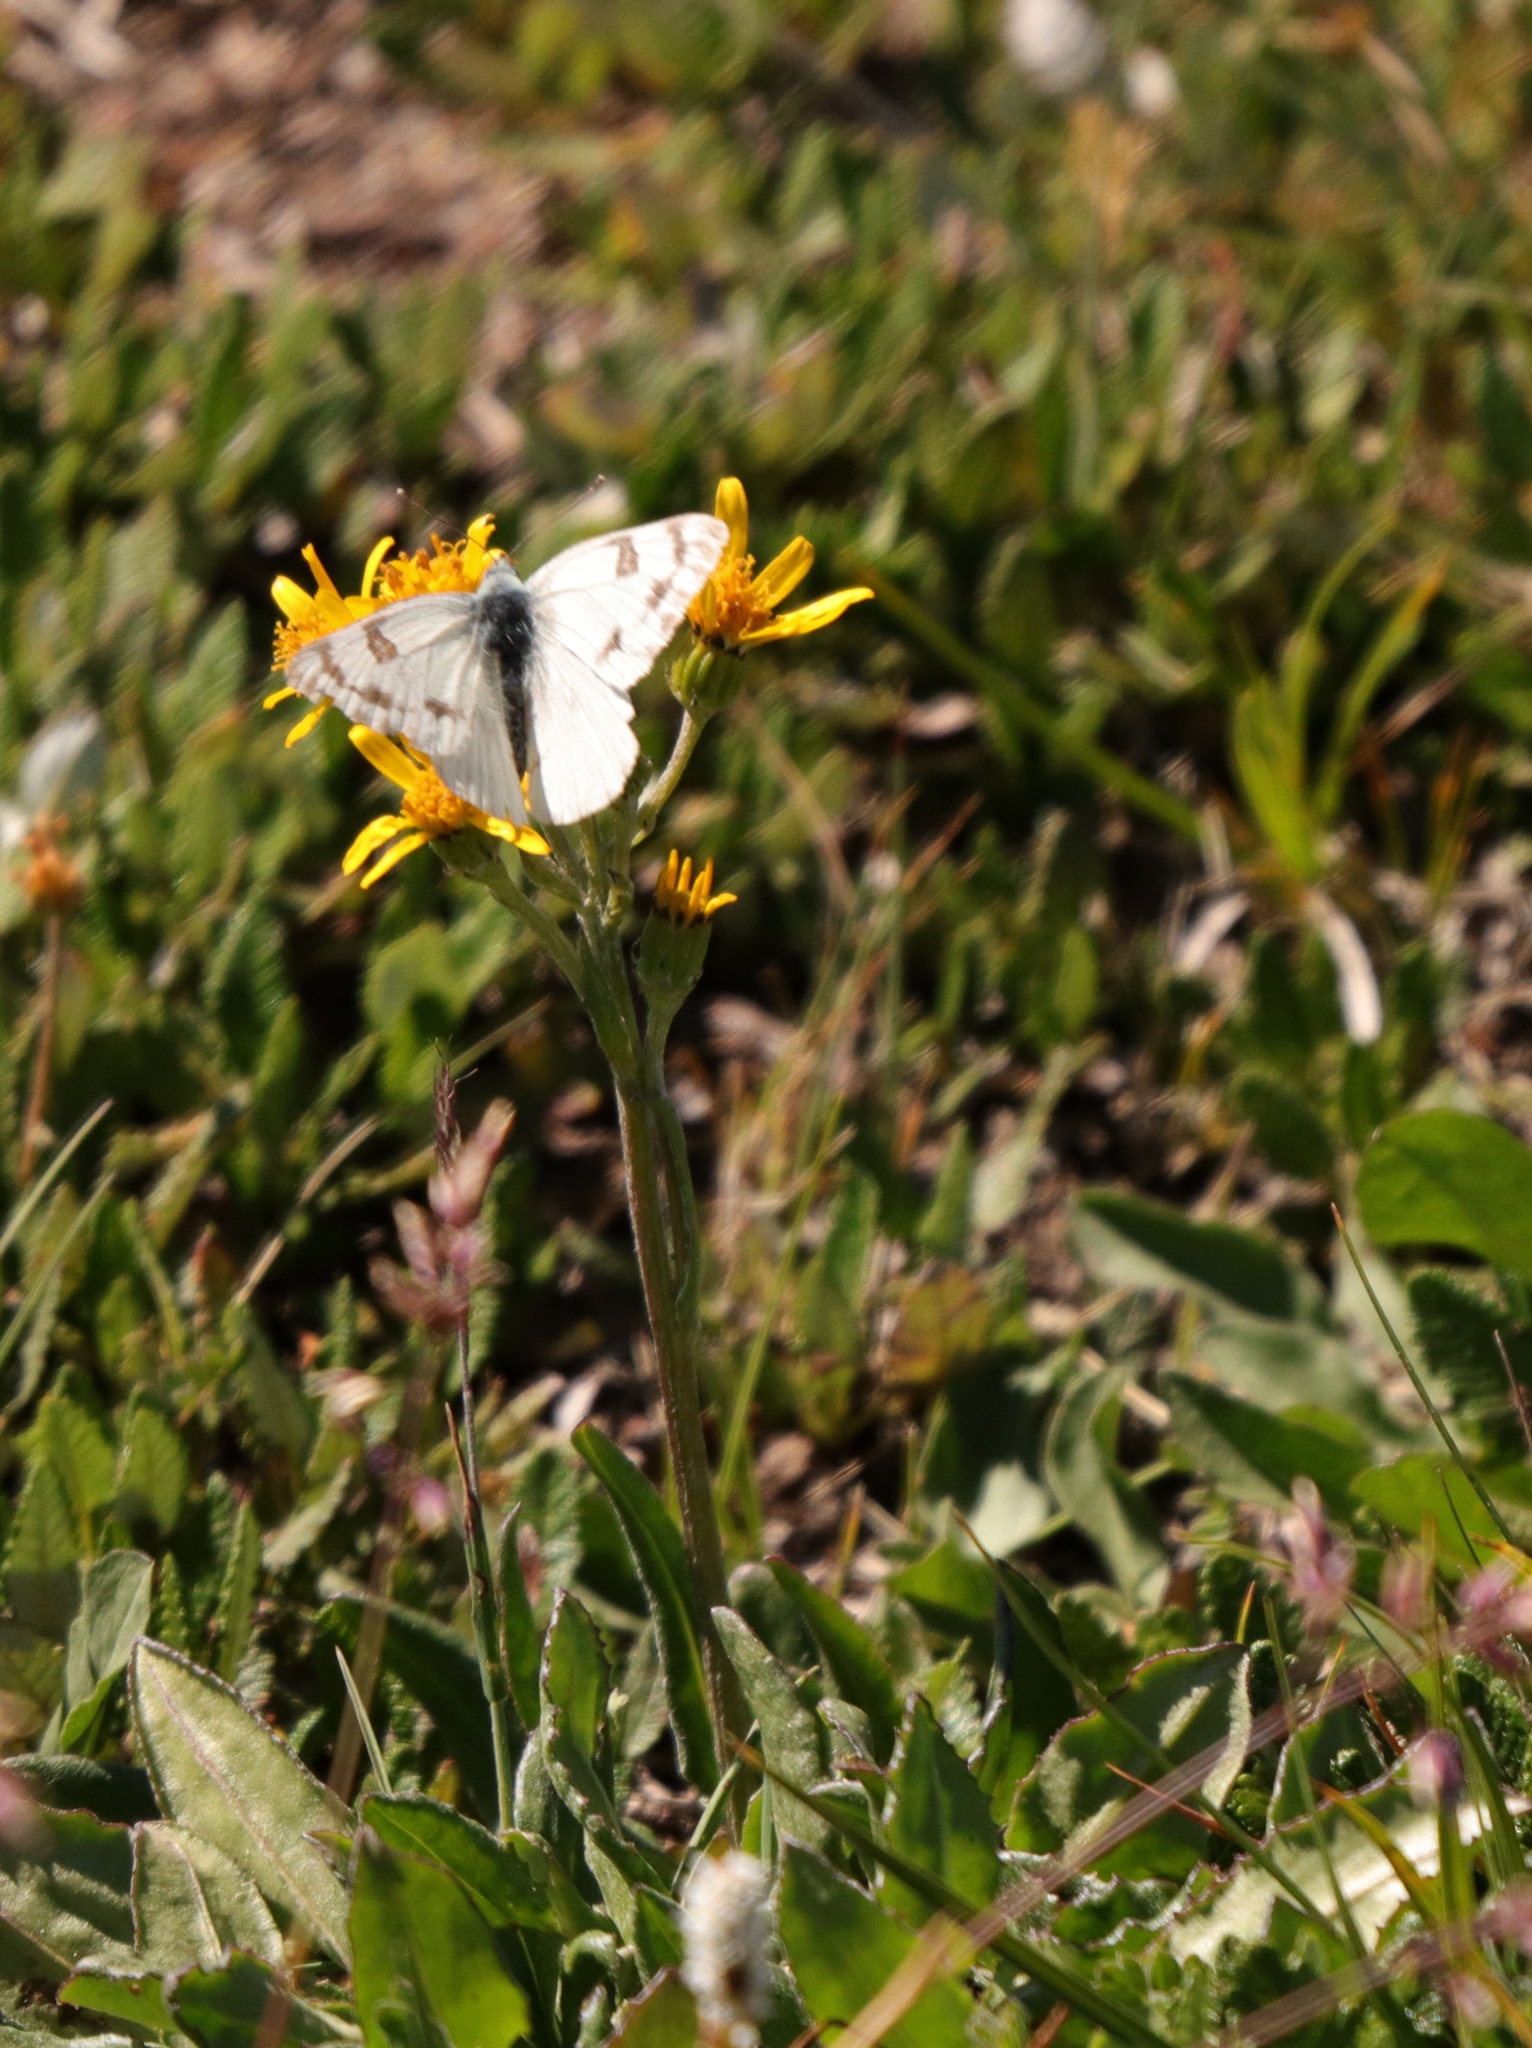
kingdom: Animalia
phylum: Arthropoda
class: Insecta
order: Lepidoptera
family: Pieridae
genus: Pontia
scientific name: Pontia occidentalis
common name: Western white
